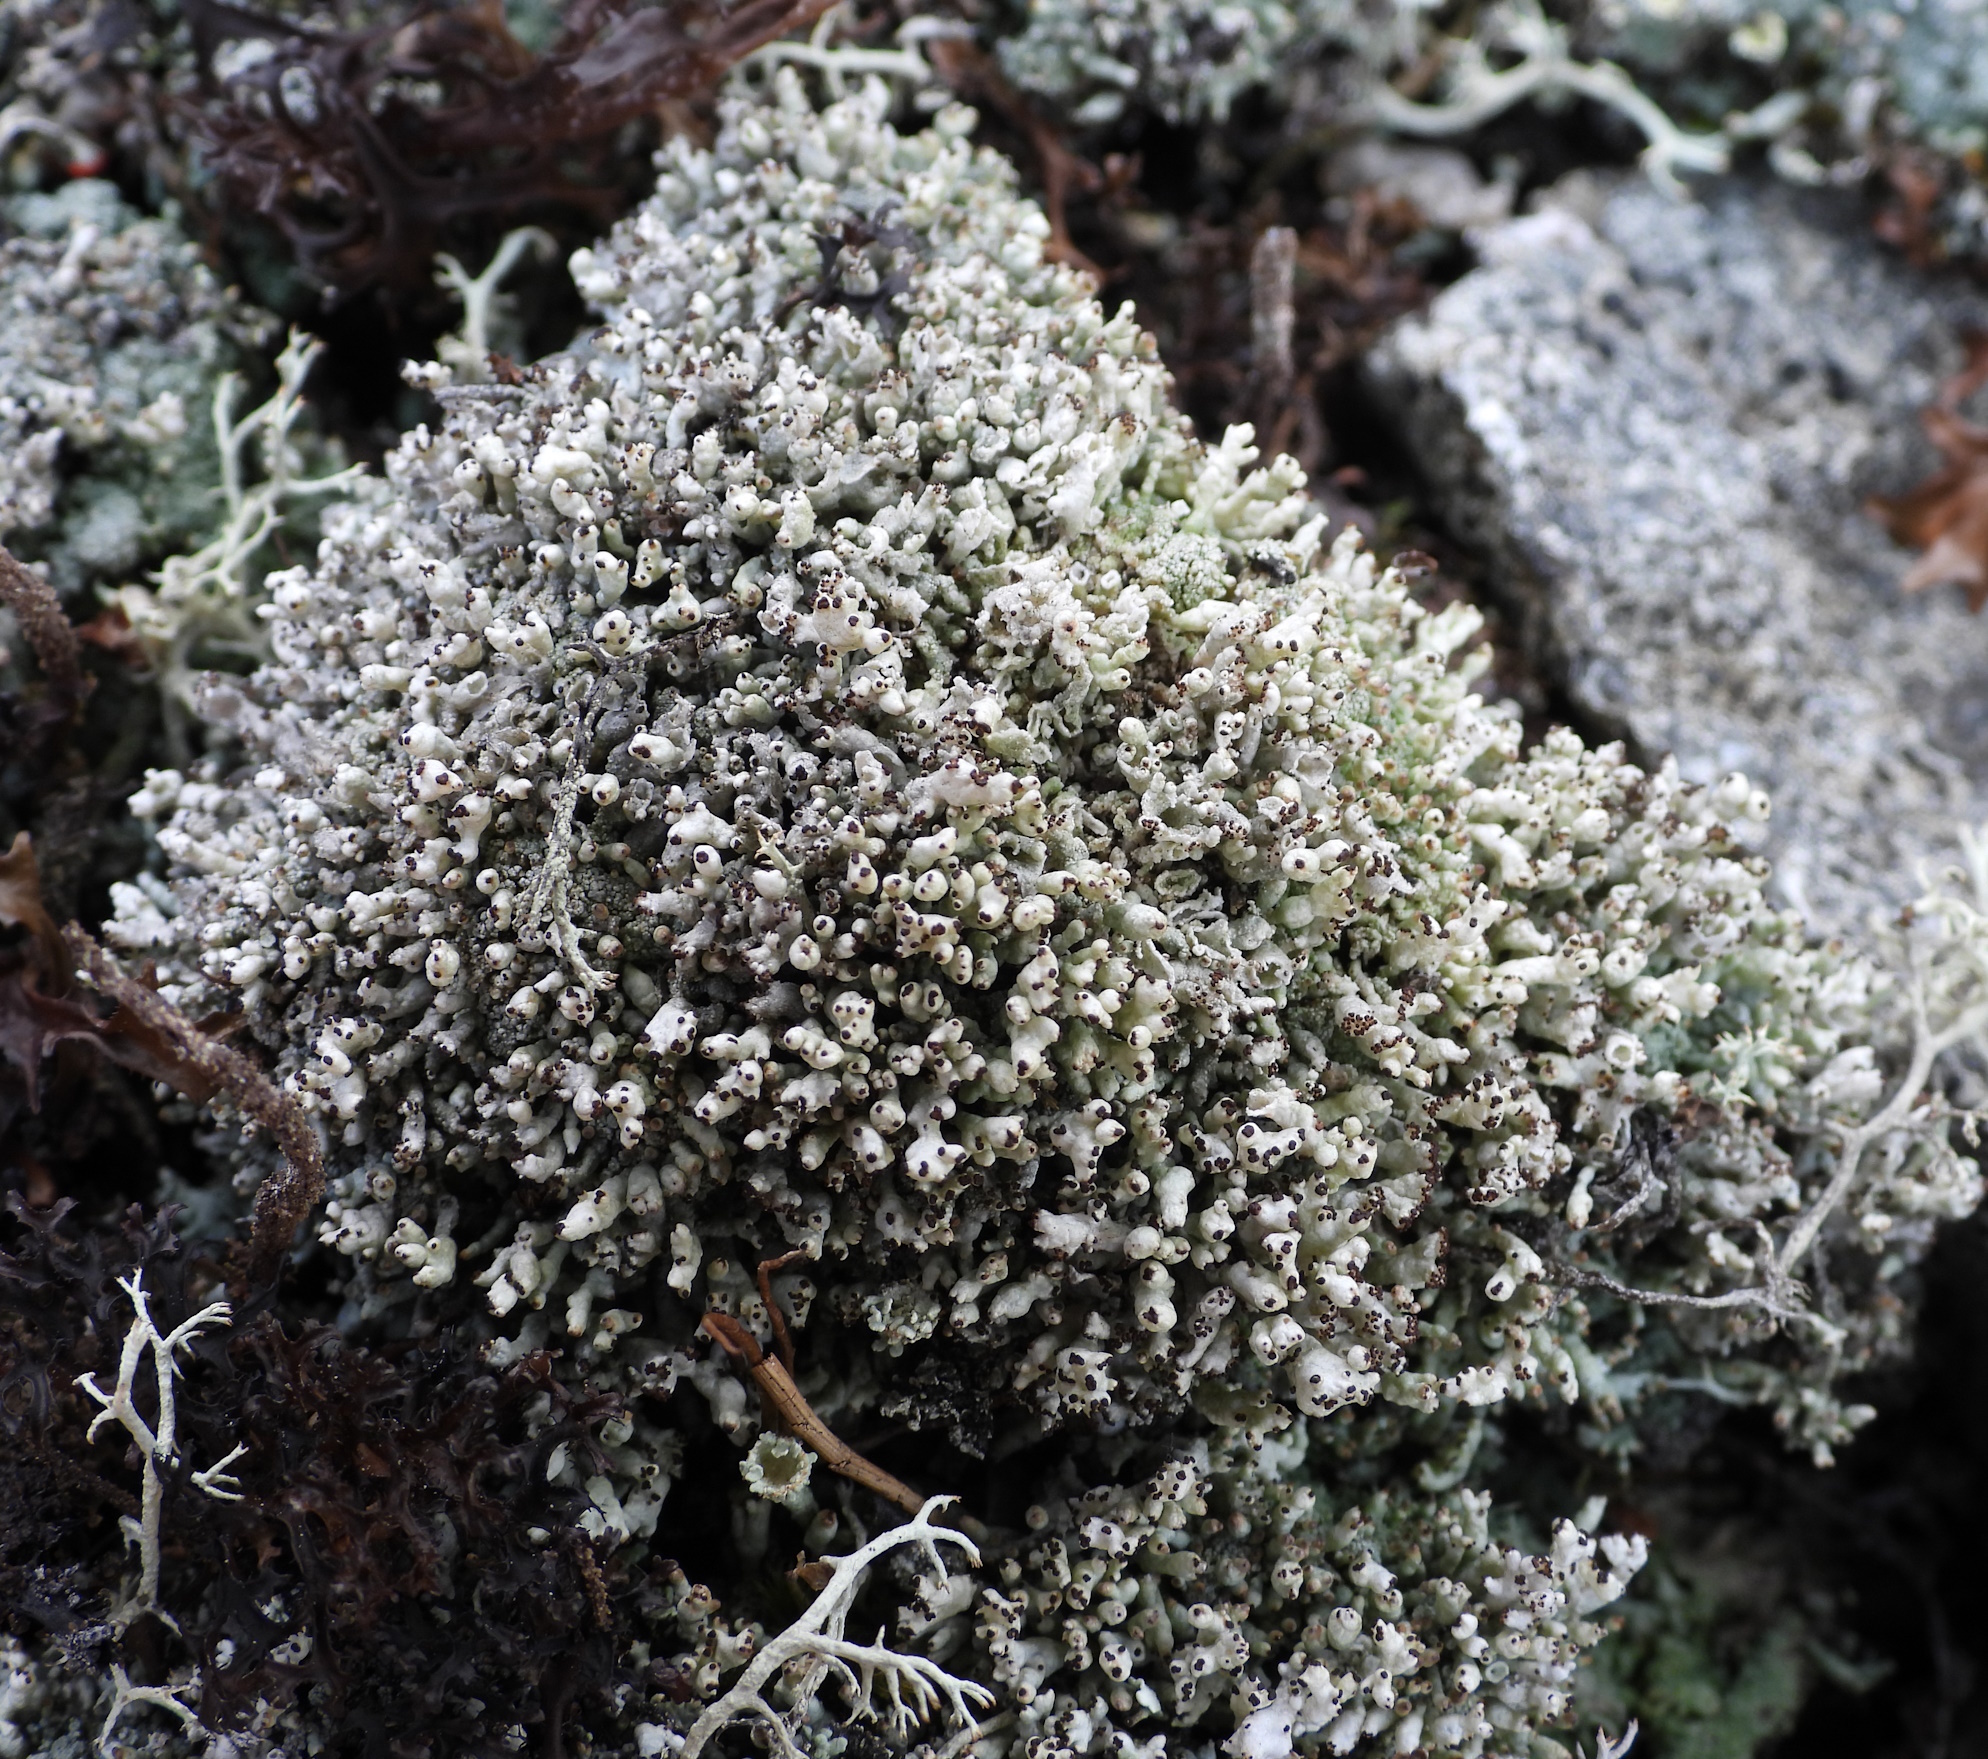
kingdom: Fungi
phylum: Ascomycota
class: Lecanoromycetes
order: Lecanorales
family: Cladoniaceae
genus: Pycnothelia
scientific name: Pycnothelia papillaria
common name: Nipple lichen
